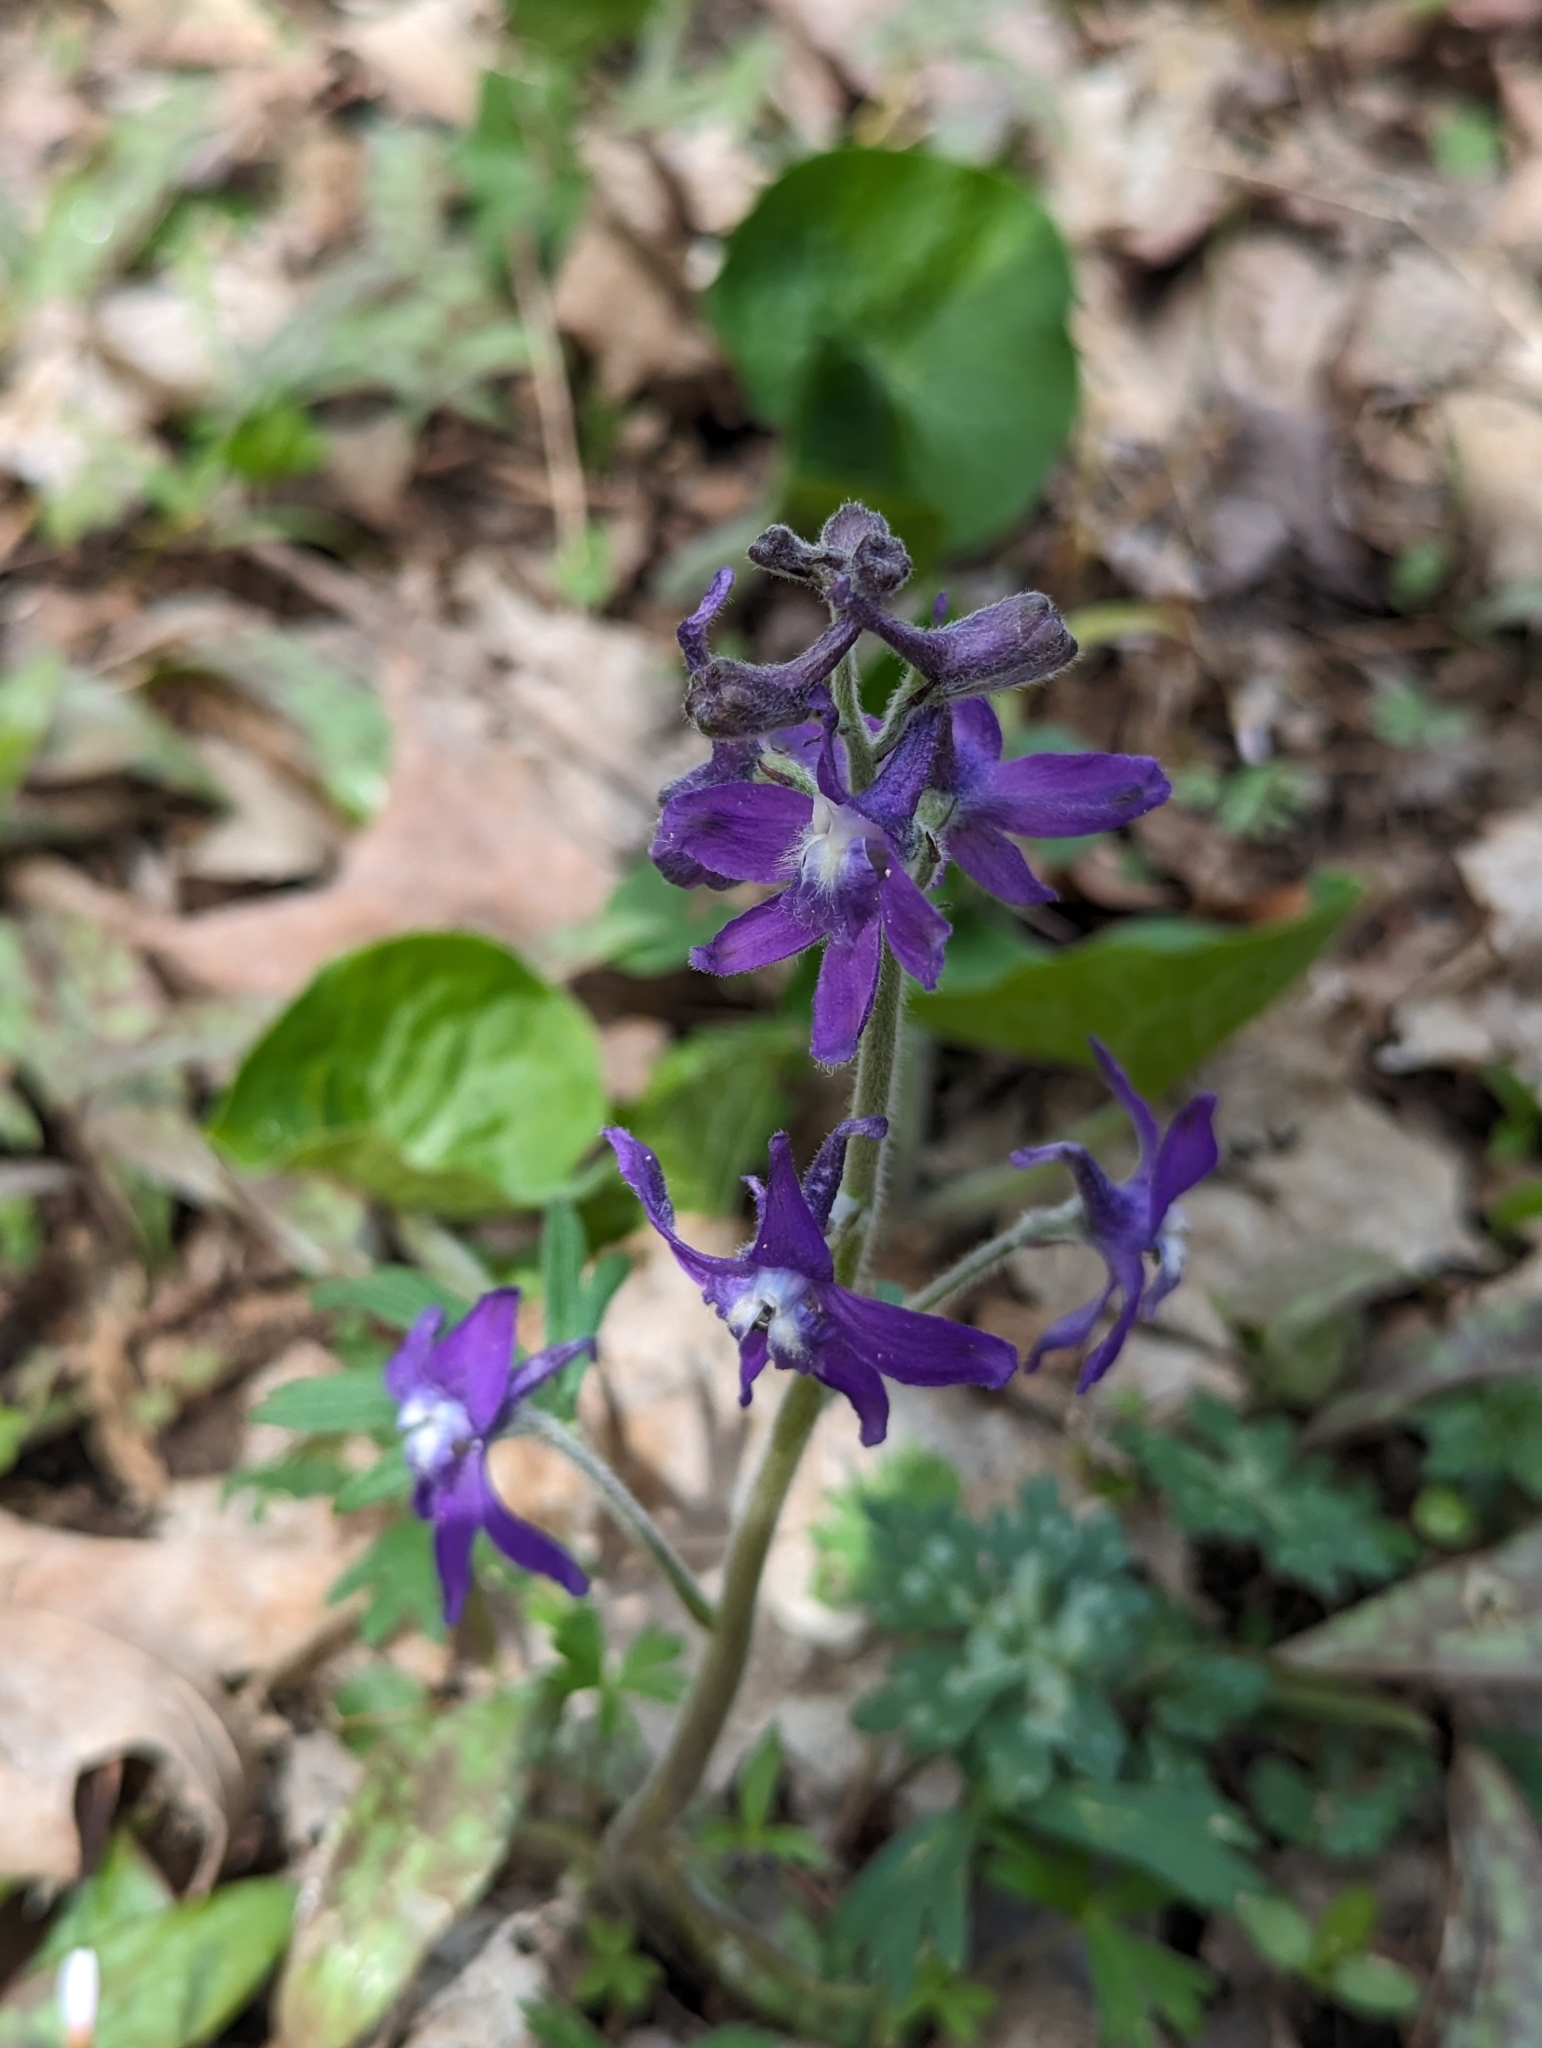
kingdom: Plantae
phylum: Tracheophyta
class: Magnoliopsida
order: Ranunculales
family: Ranunculaceae
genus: Delphinium
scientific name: Delphinium tricorne
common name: Dwarf larkspur
